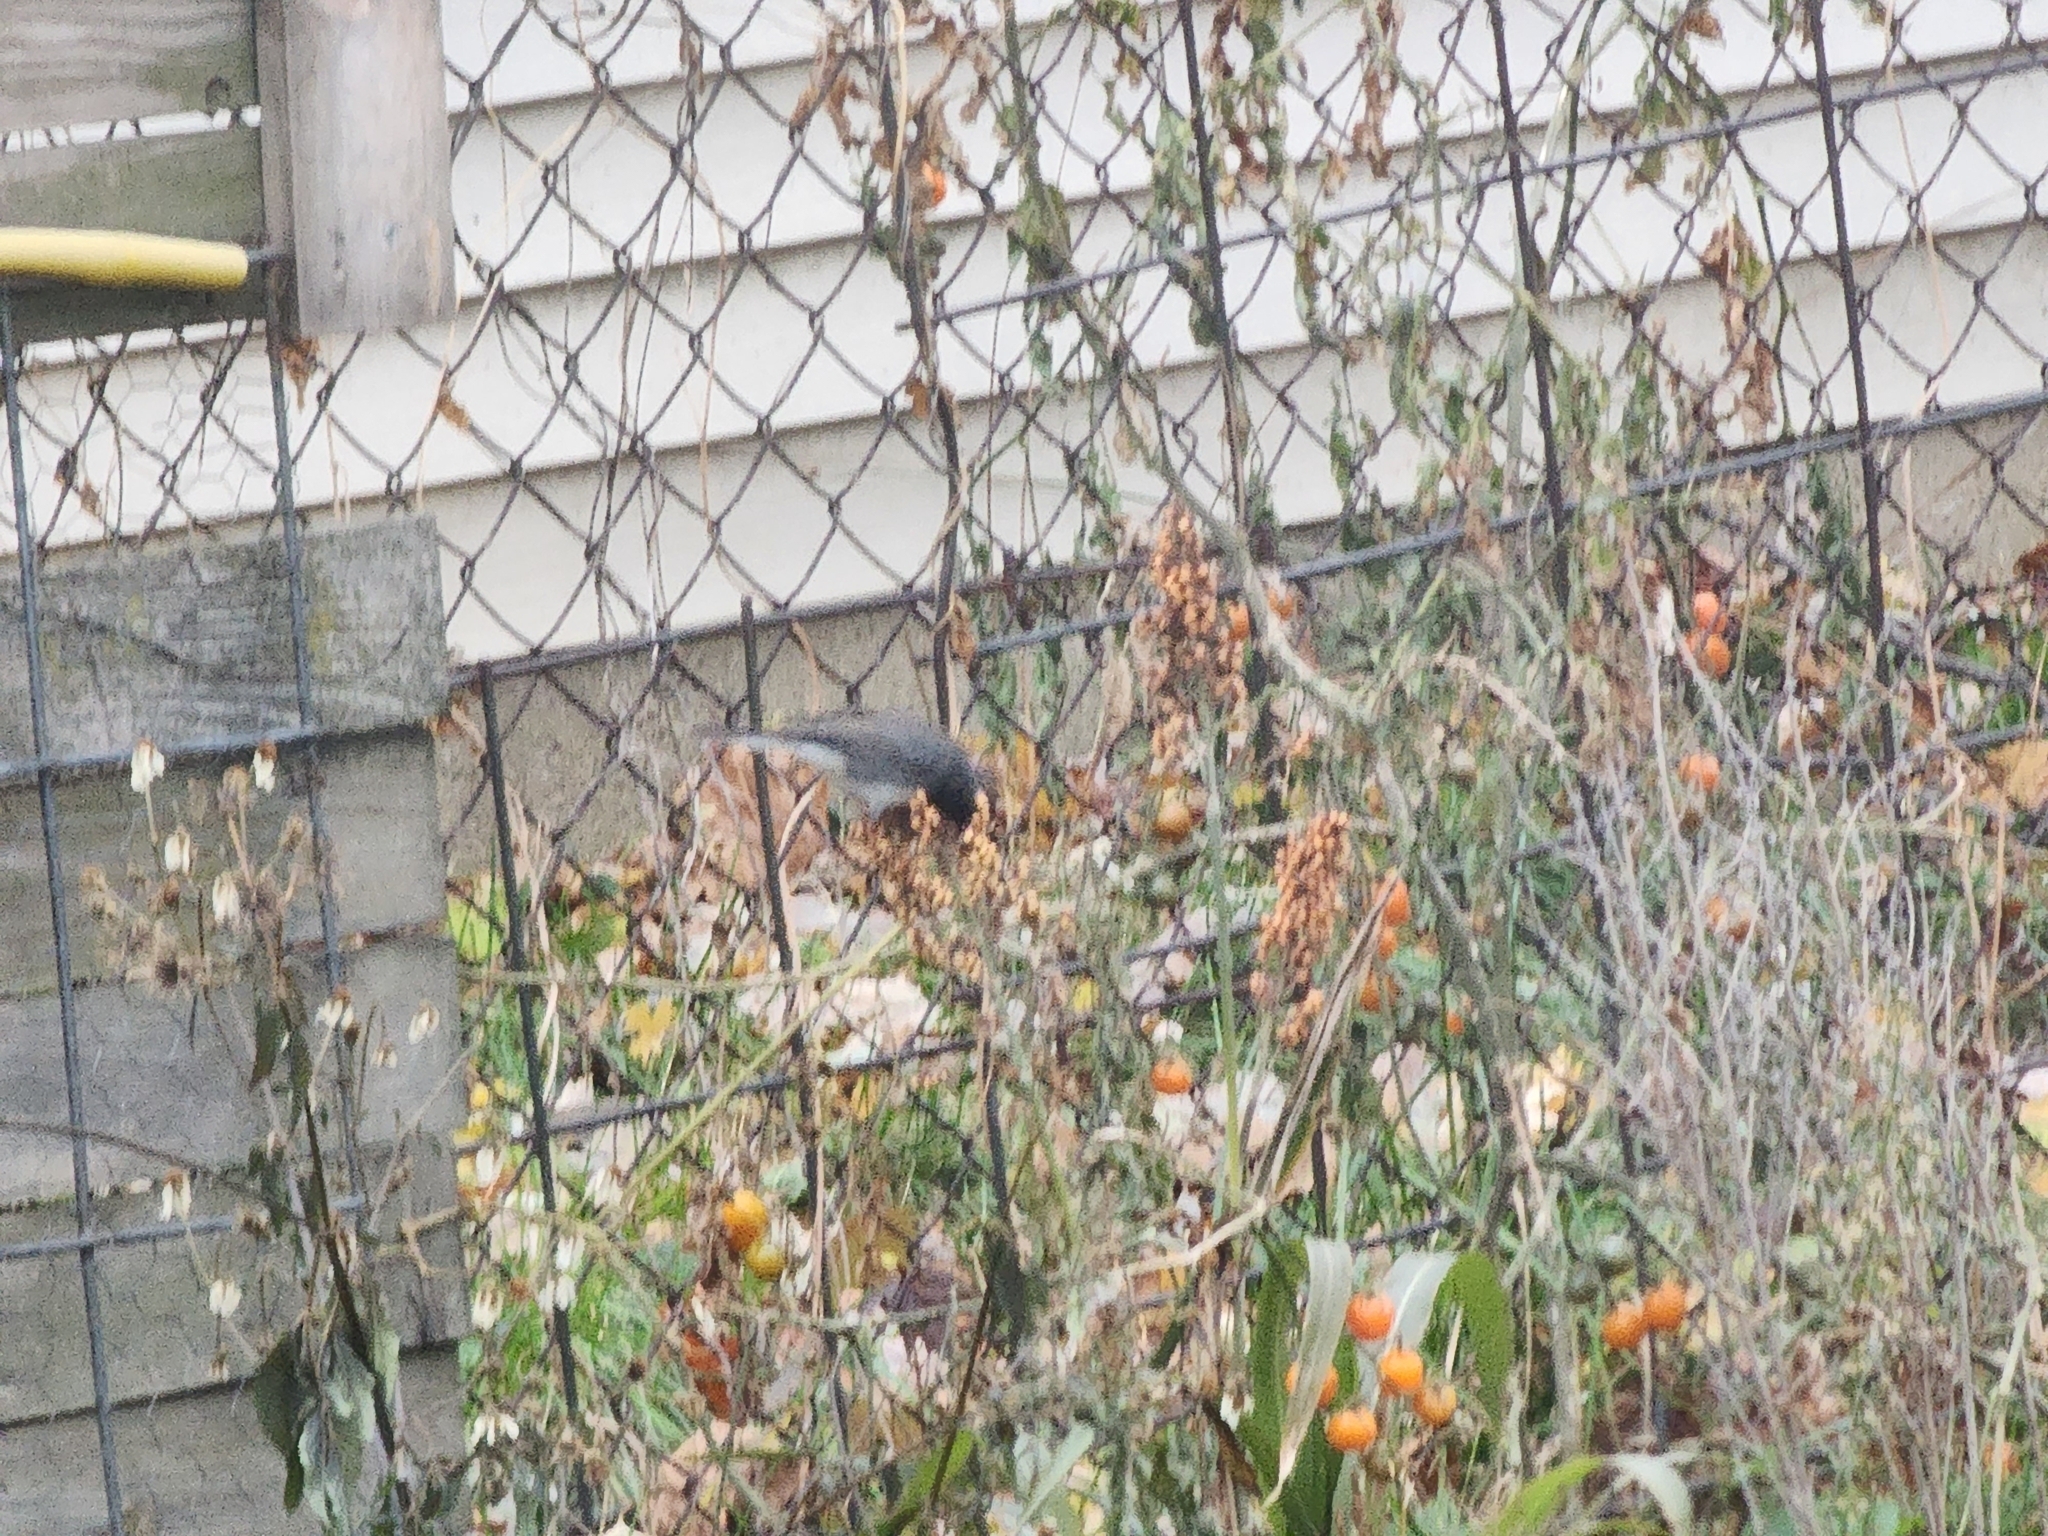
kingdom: Animalia
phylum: Chordata
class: Aves
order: Passeriformes
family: Passerellidae
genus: Junco
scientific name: Junco hyemalis
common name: Dark-eyed junco
